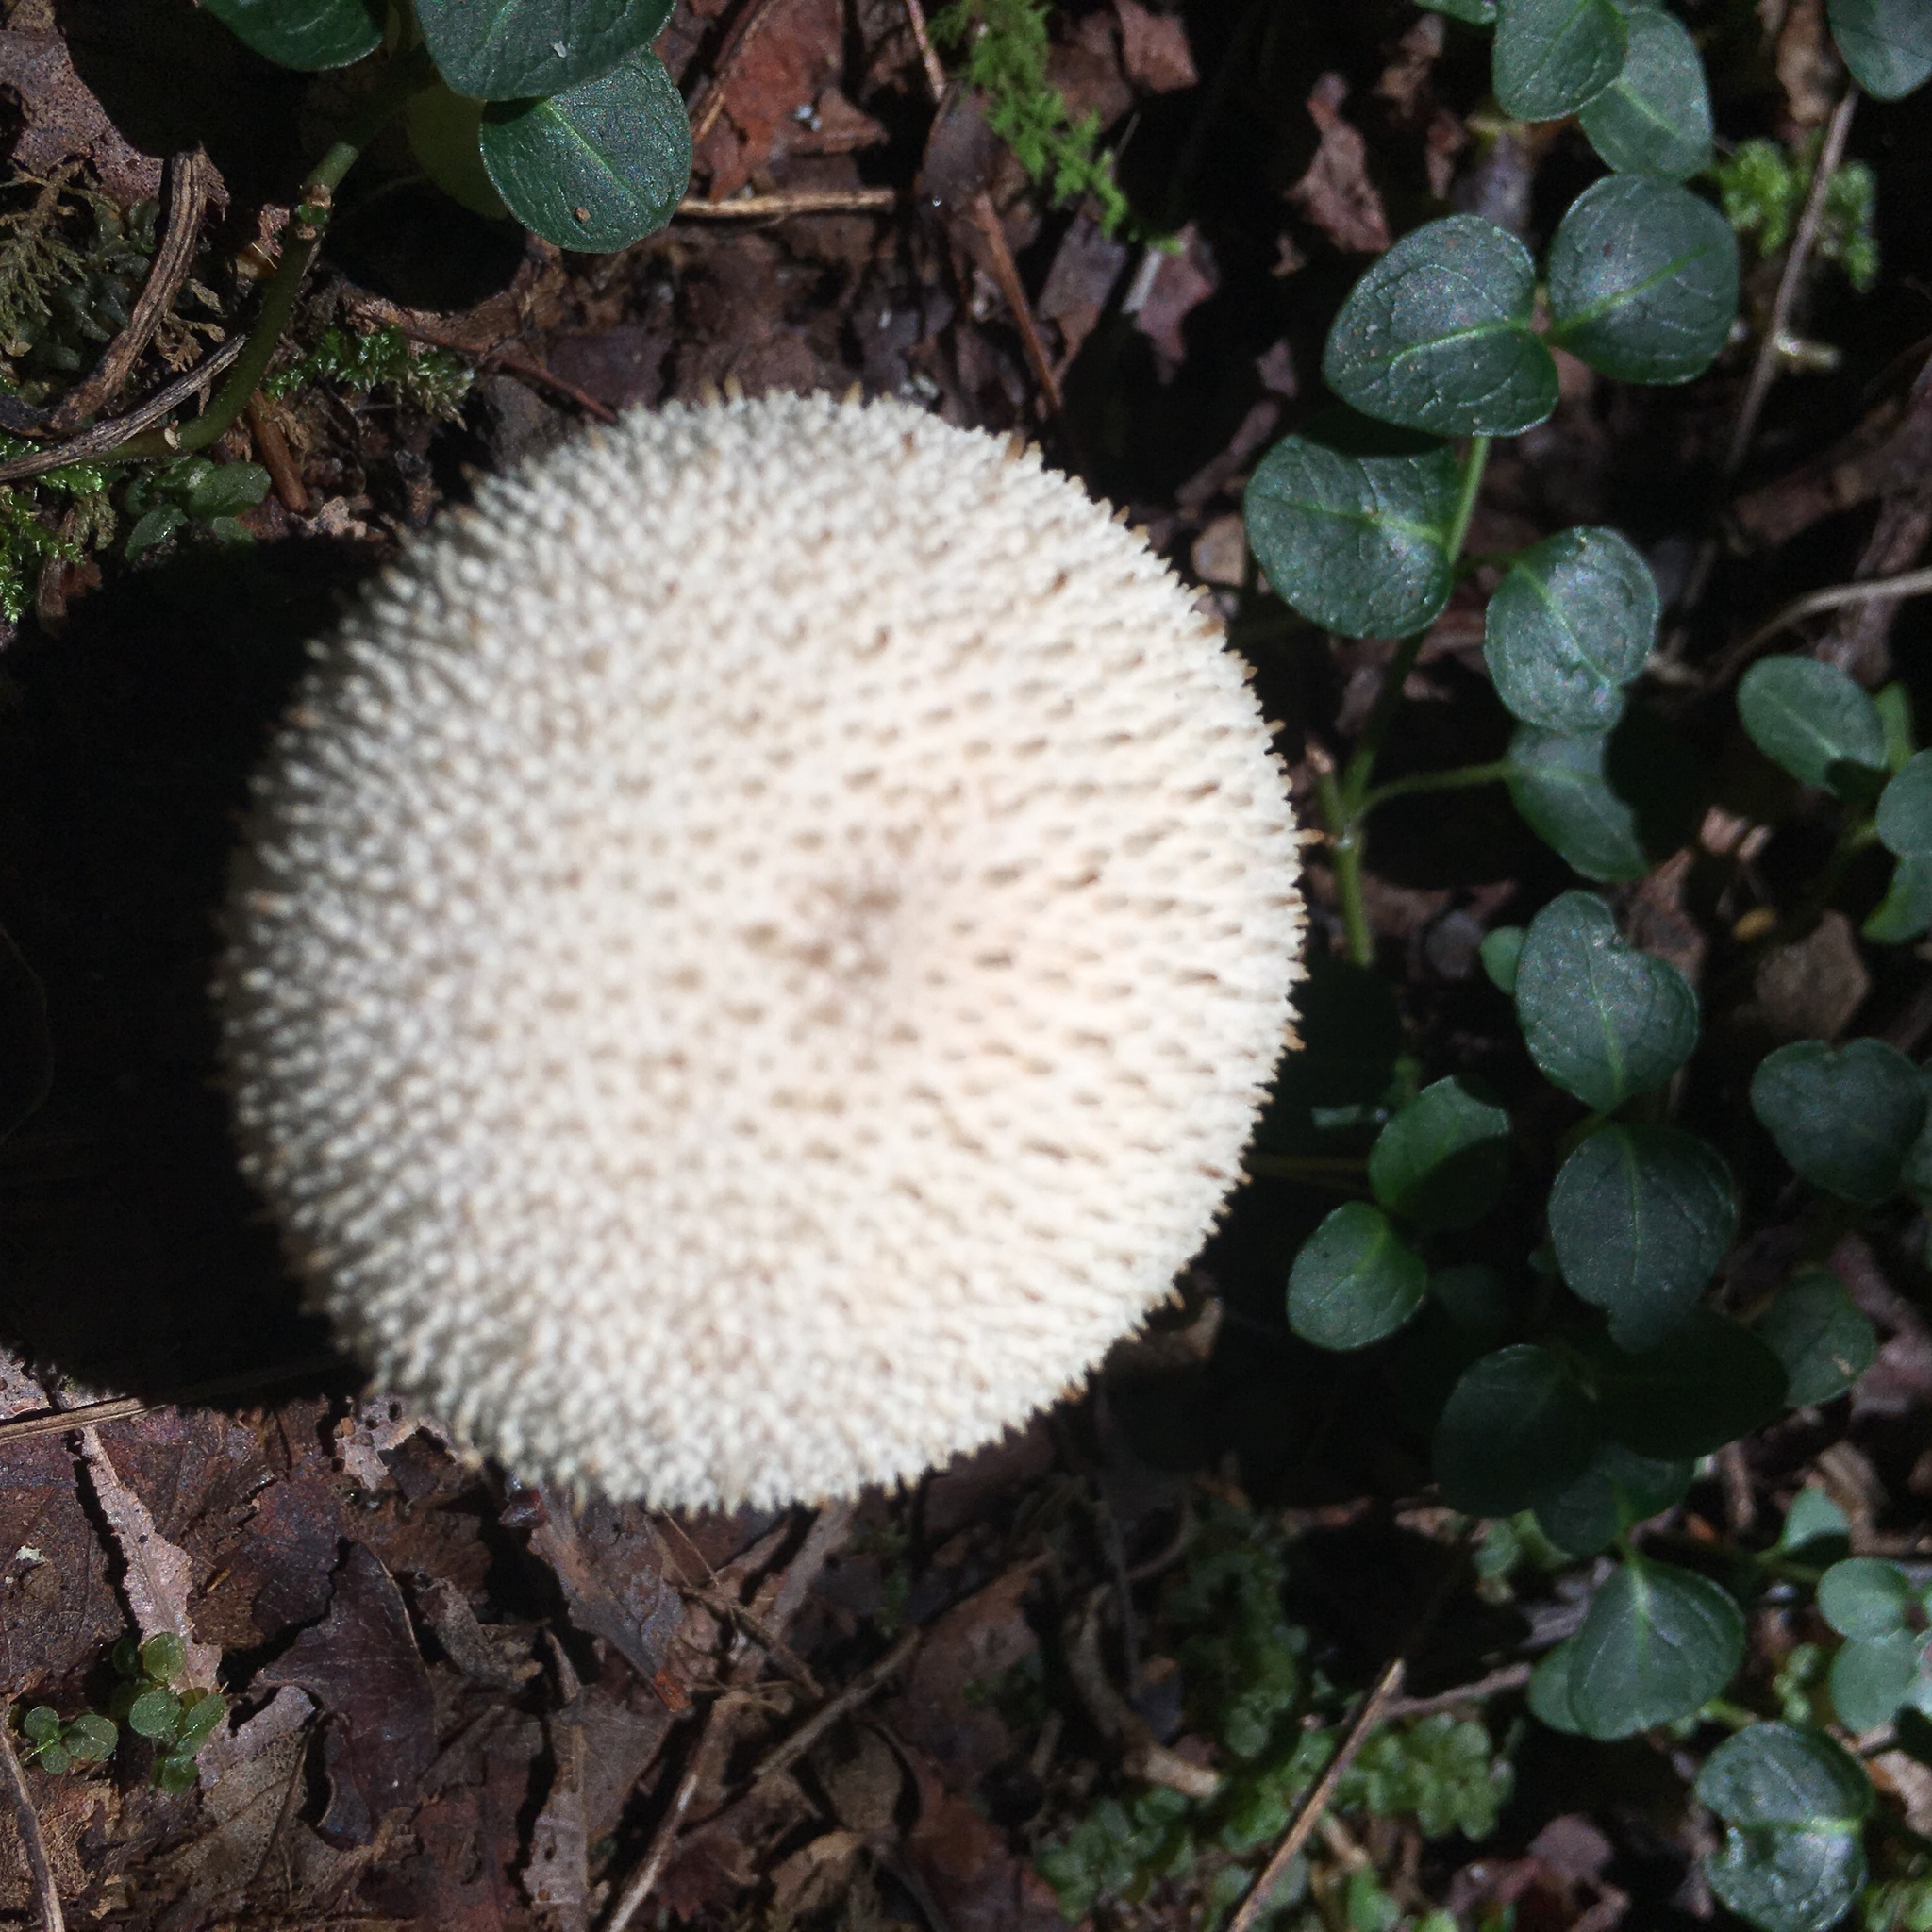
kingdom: Fungi
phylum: Basidiomycota
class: Agaricomycetes
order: Agaricales
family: Lycoperdaceae
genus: Lycoperdon
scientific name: Lycoperdon perlatum
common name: Common puffball
